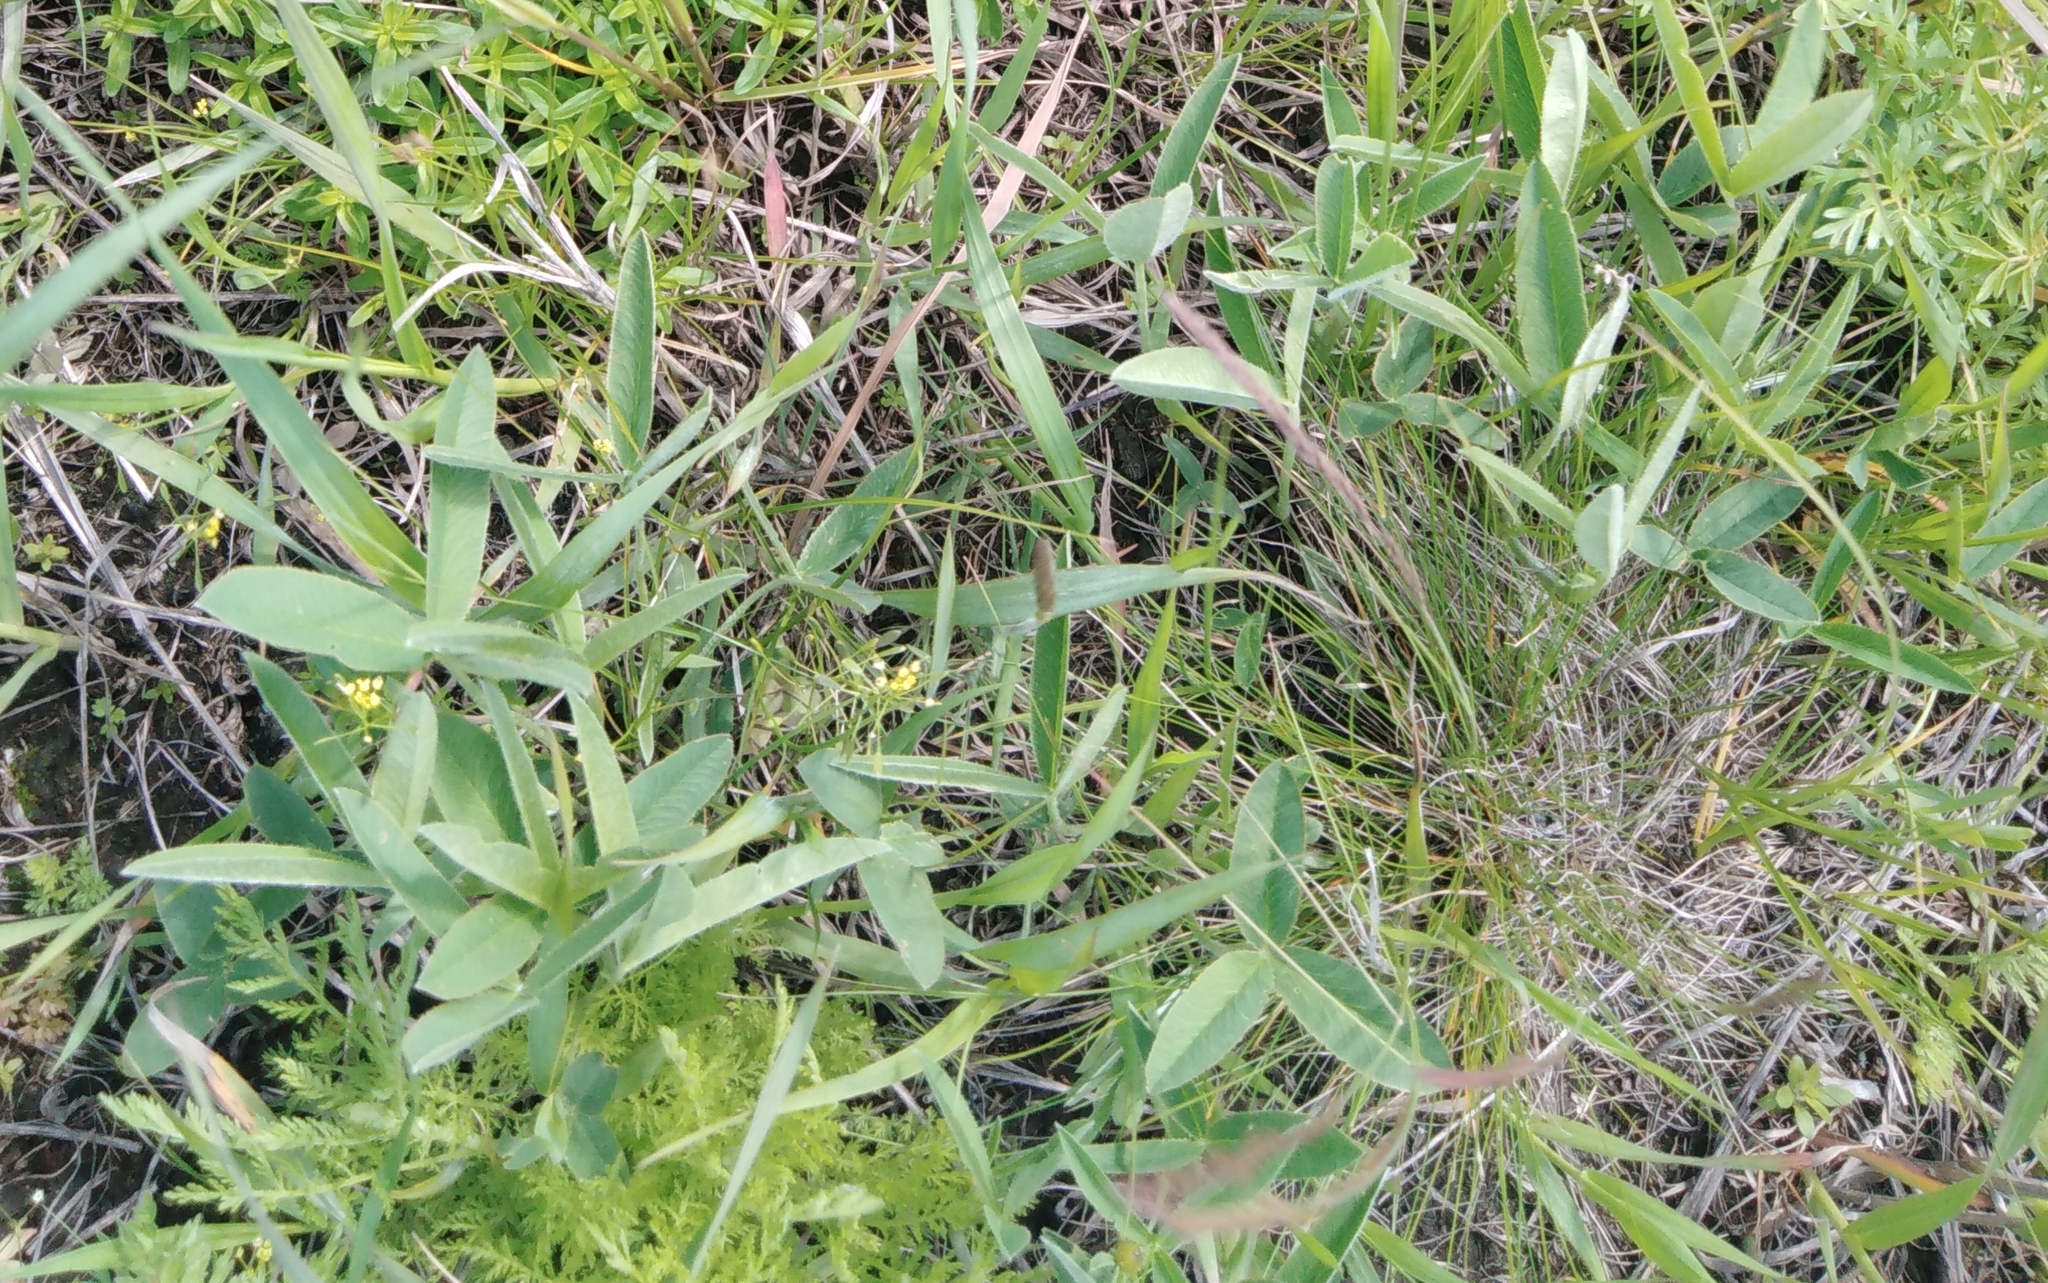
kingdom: Plantae
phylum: Tracheophyta
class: Magnoliopsida
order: Fabales
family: Fabaceae
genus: Trifolium
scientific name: Trifolium montanum
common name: Mountain clover
